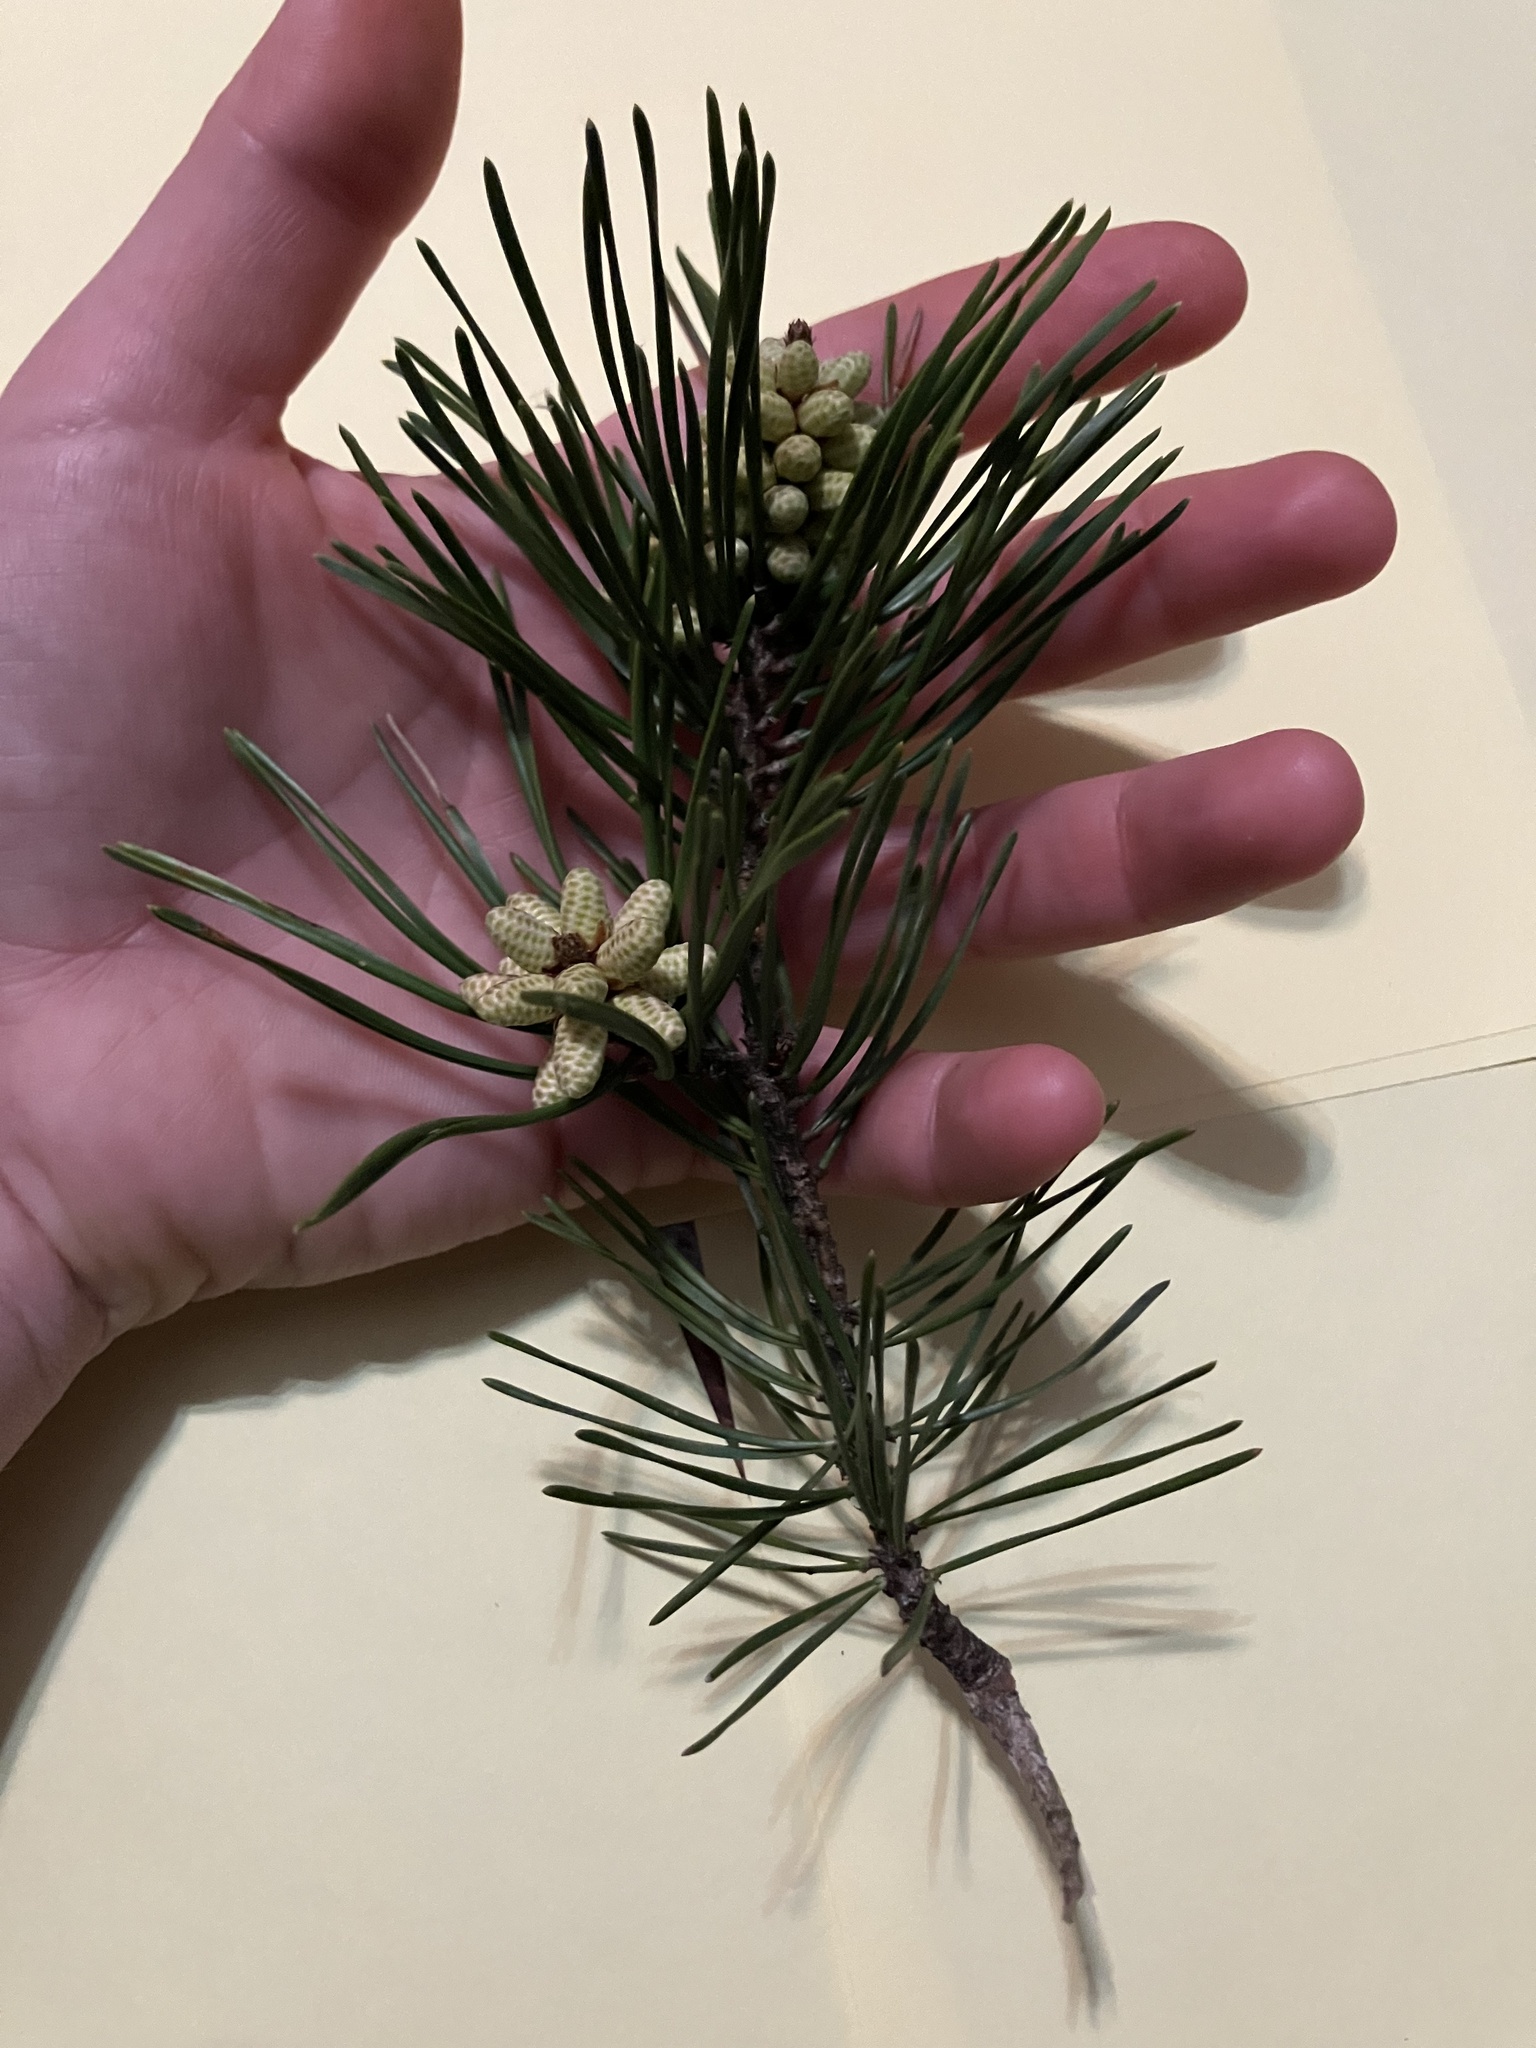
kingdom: Plantae
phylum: Tracheophyta
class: Pinopsida
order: Pinales
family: Pinaceae
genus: Pinus
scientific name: Pinus virginiana
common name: Scrub pine
